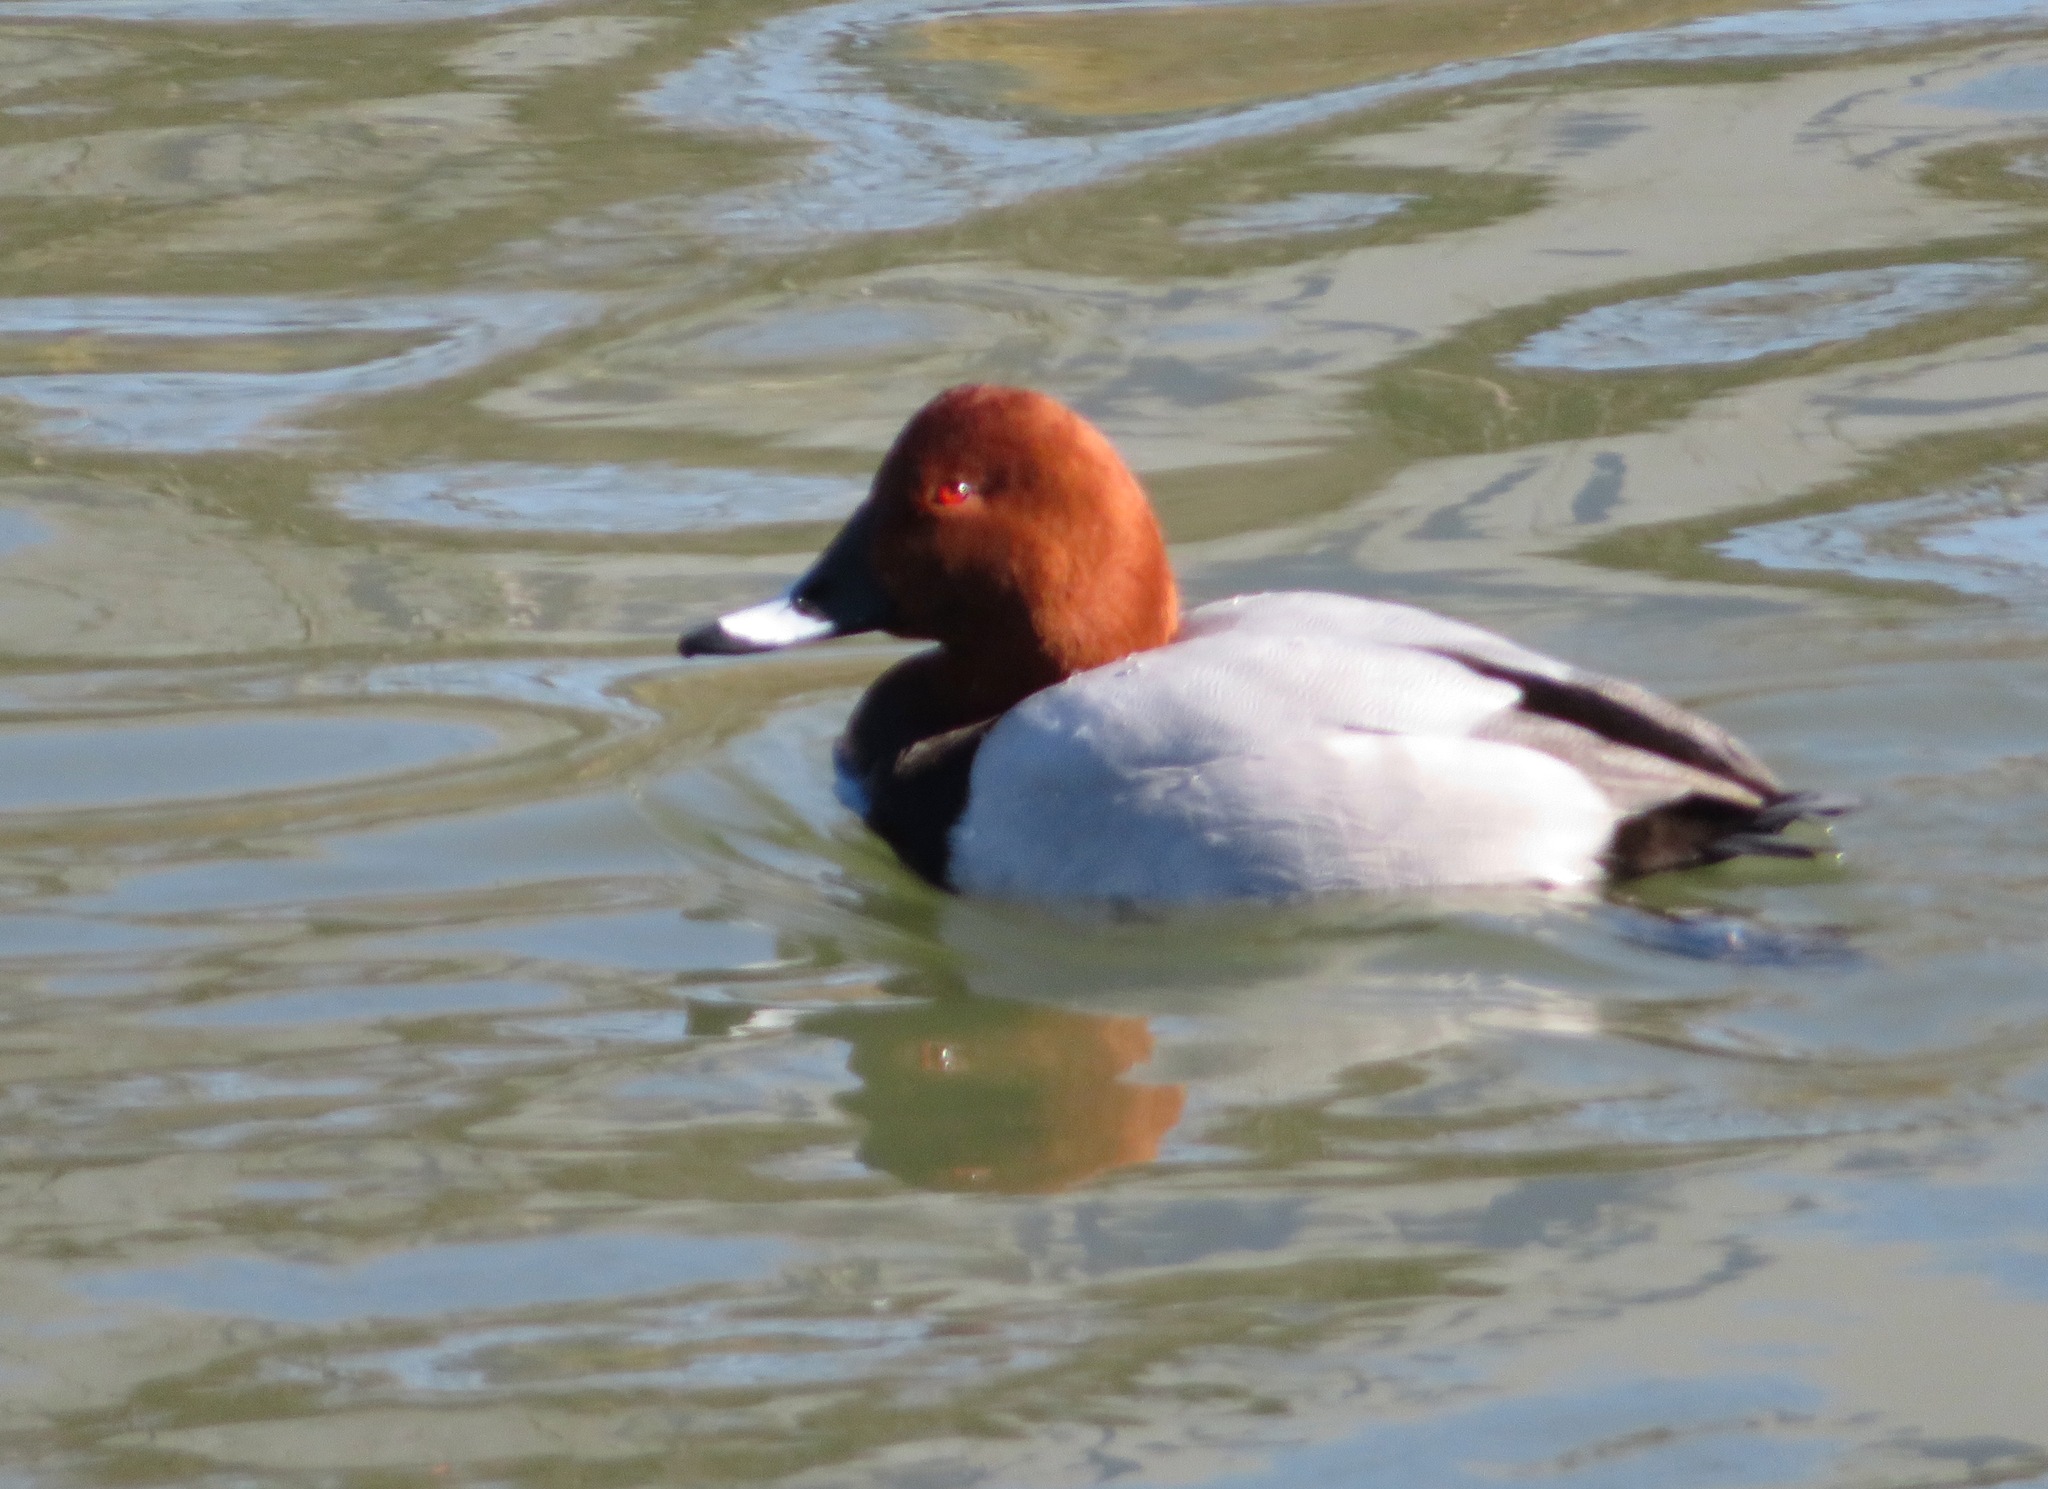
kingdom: Animalia
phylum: Chordata
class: Aves
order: Anseriformes
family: Anatidae
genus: Aythya
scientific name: Aythya ferina
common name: Common pochard
